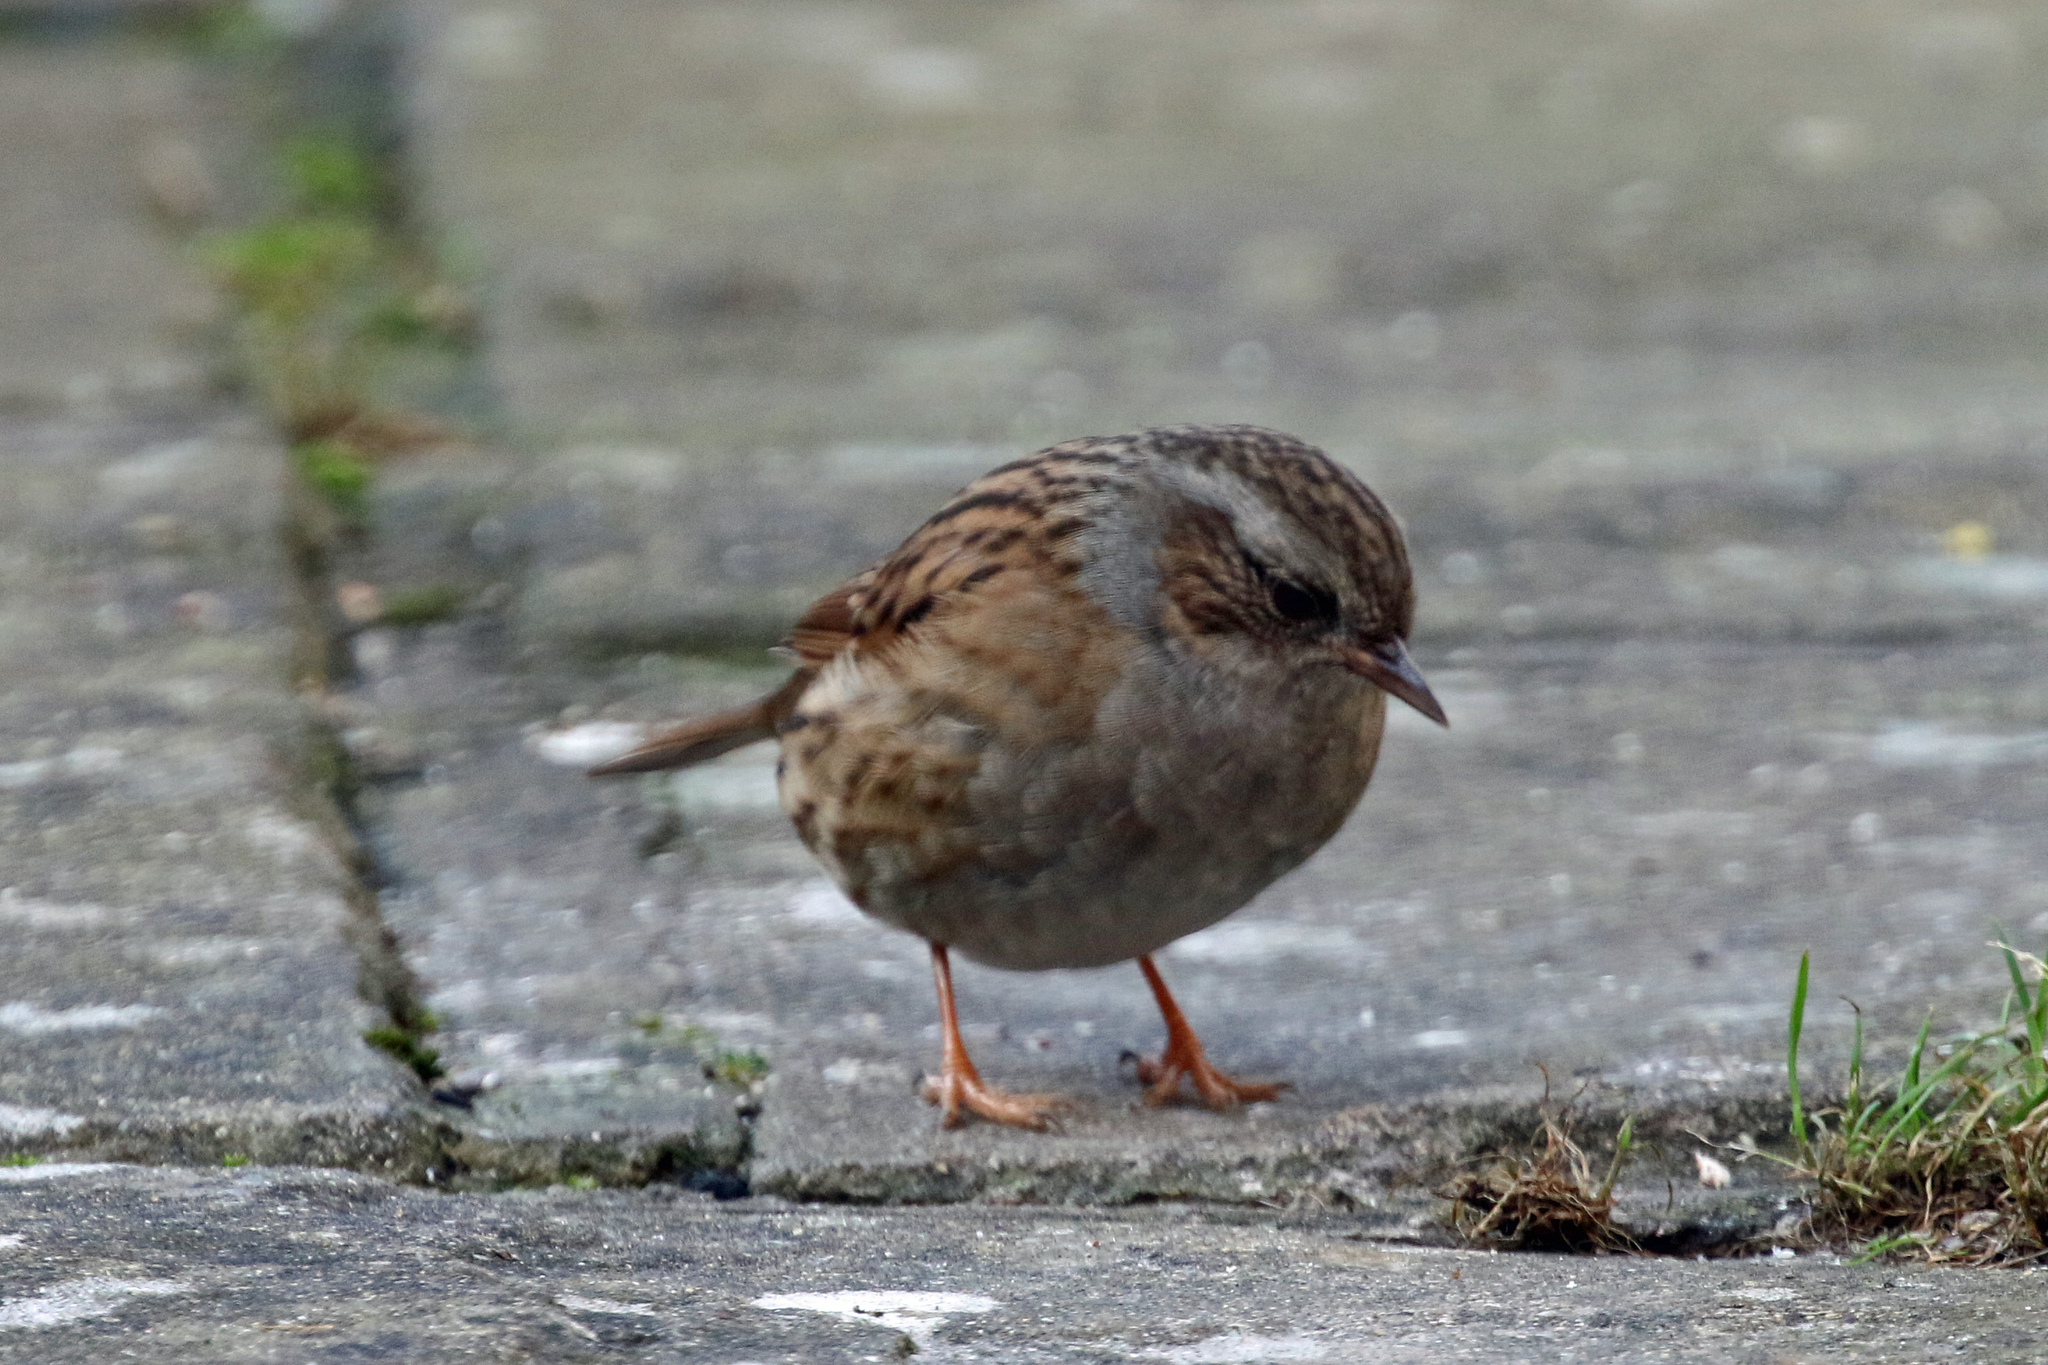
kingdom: Animalia
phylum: Chordata
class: Aves
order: Passeriformes
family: Prunellidae
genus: Prunella
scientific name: Prunella modularis
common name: Dunnock
